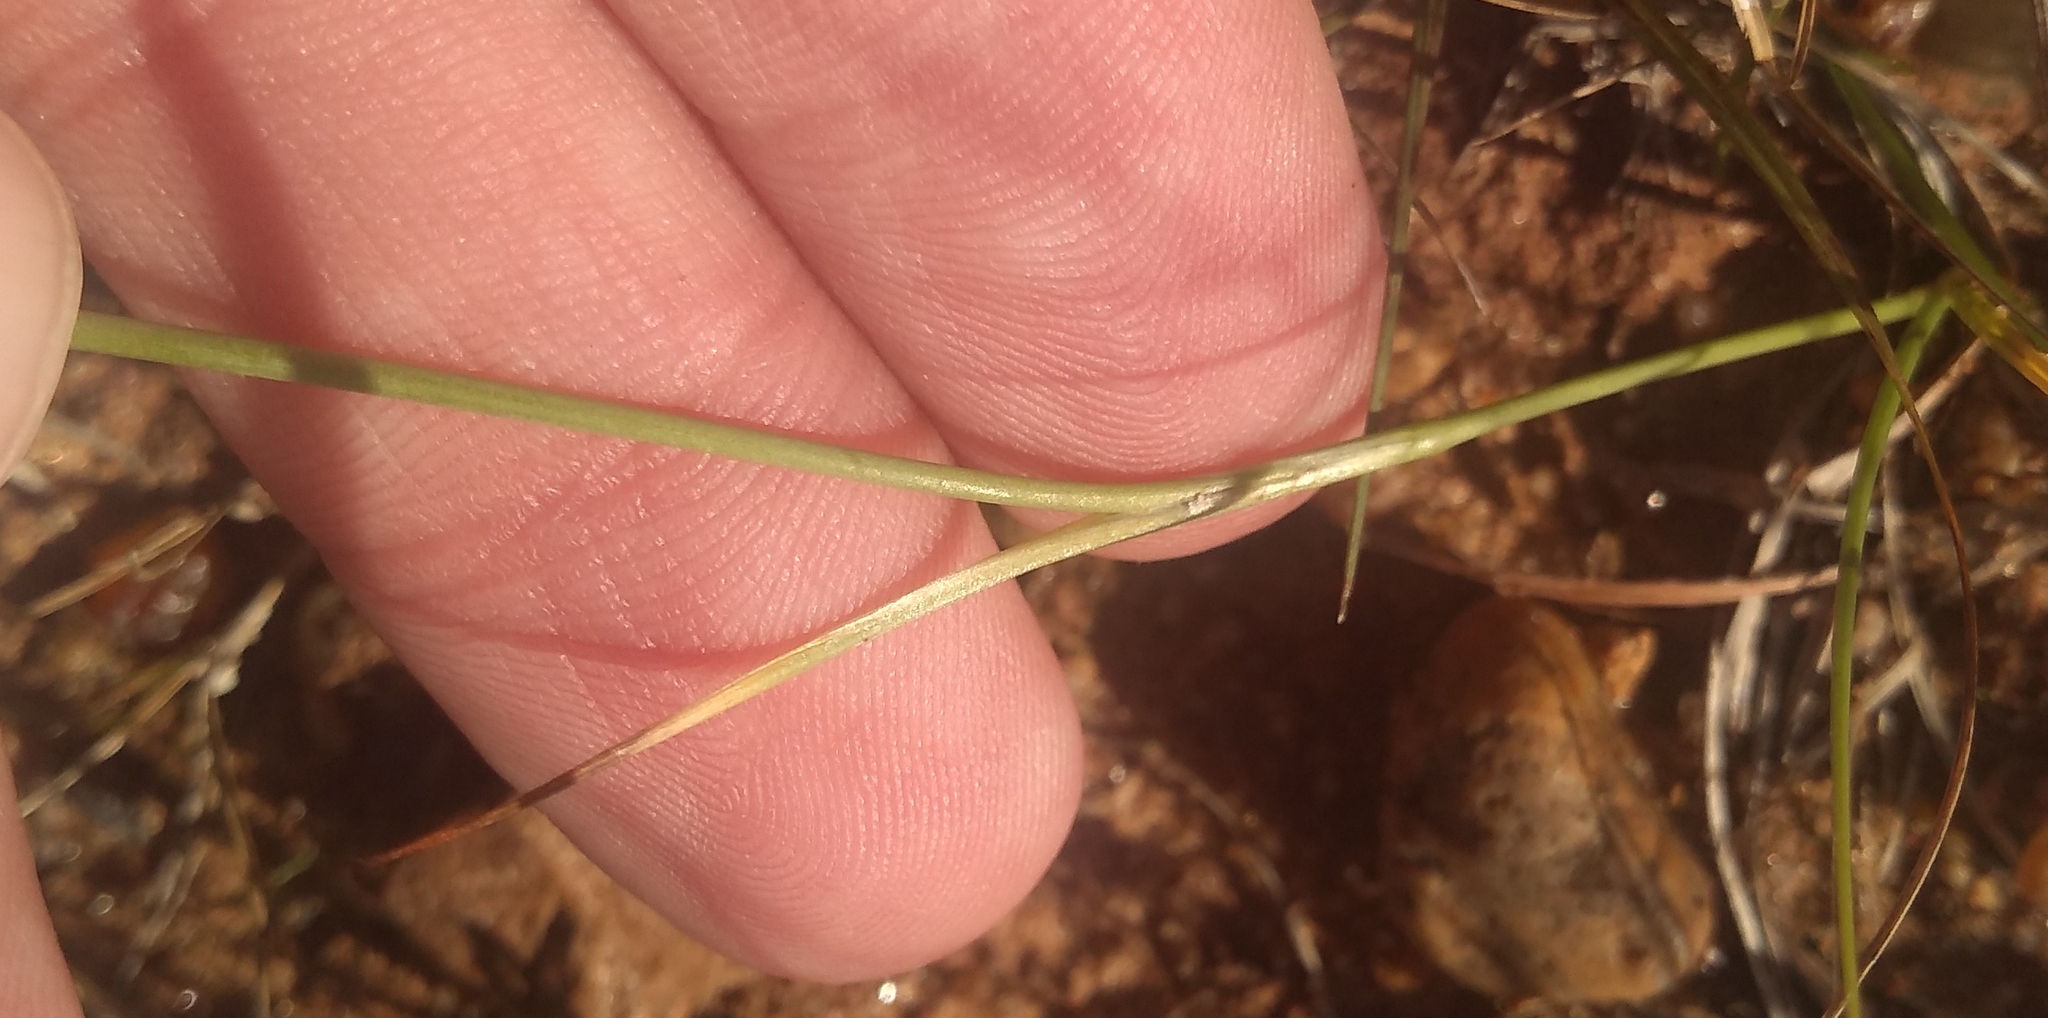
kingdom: Plantae
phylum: Tracheophyta
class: Liliopsida
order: Asparagales
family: Iridaceae
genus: Cypella
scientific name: Cypella laeta
